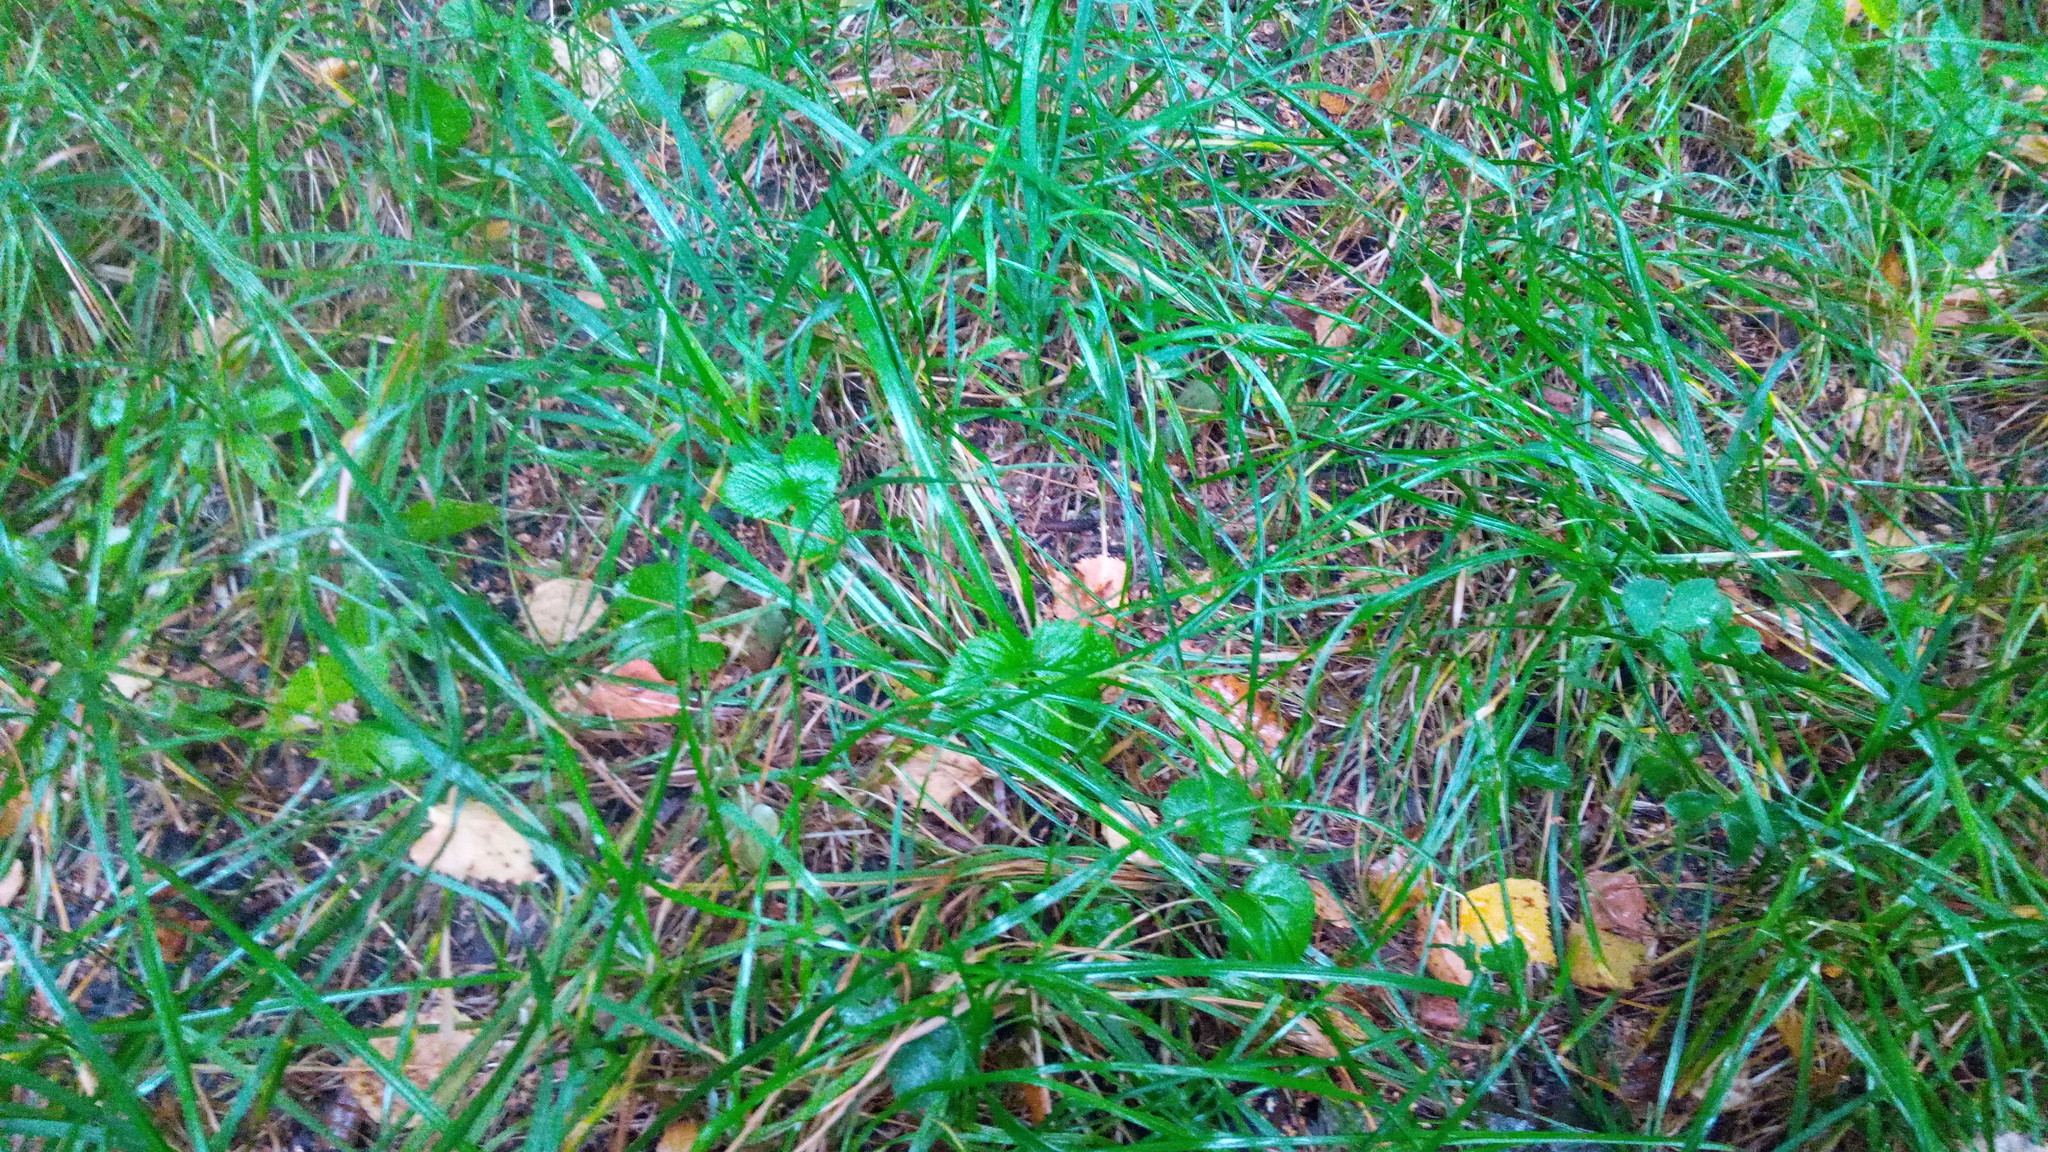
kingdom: Plantae
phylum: Tracheophyta
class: Magnoliopsida
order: Rosales
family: Rosaceae
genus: Fragaria
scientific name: Fragaria vesca
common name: Wild strawberry
